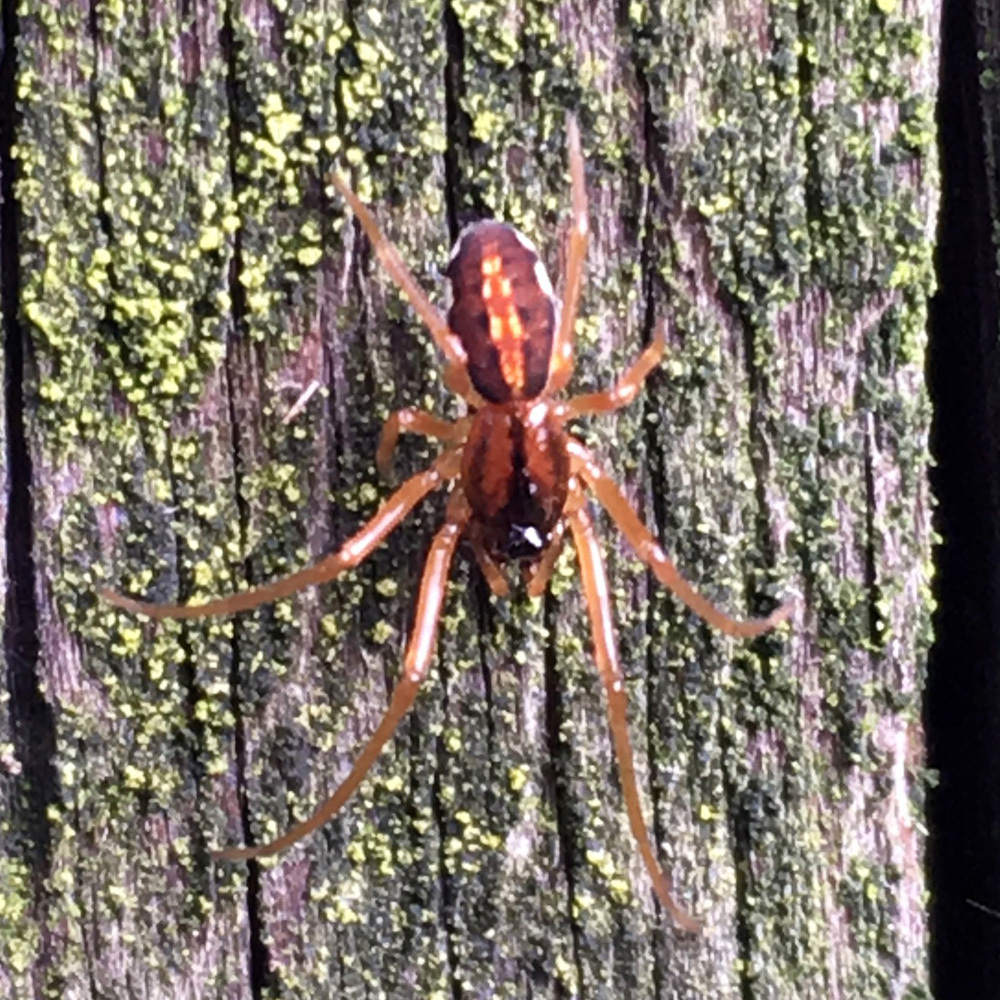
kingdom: Animalia
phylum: Arthropoda
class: Arachnida
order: Araneae
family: Tetragnathidae
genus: Pachygnatha
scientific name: Pachygnatha autumnalis
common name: Big-eyed thick-jawed spider
